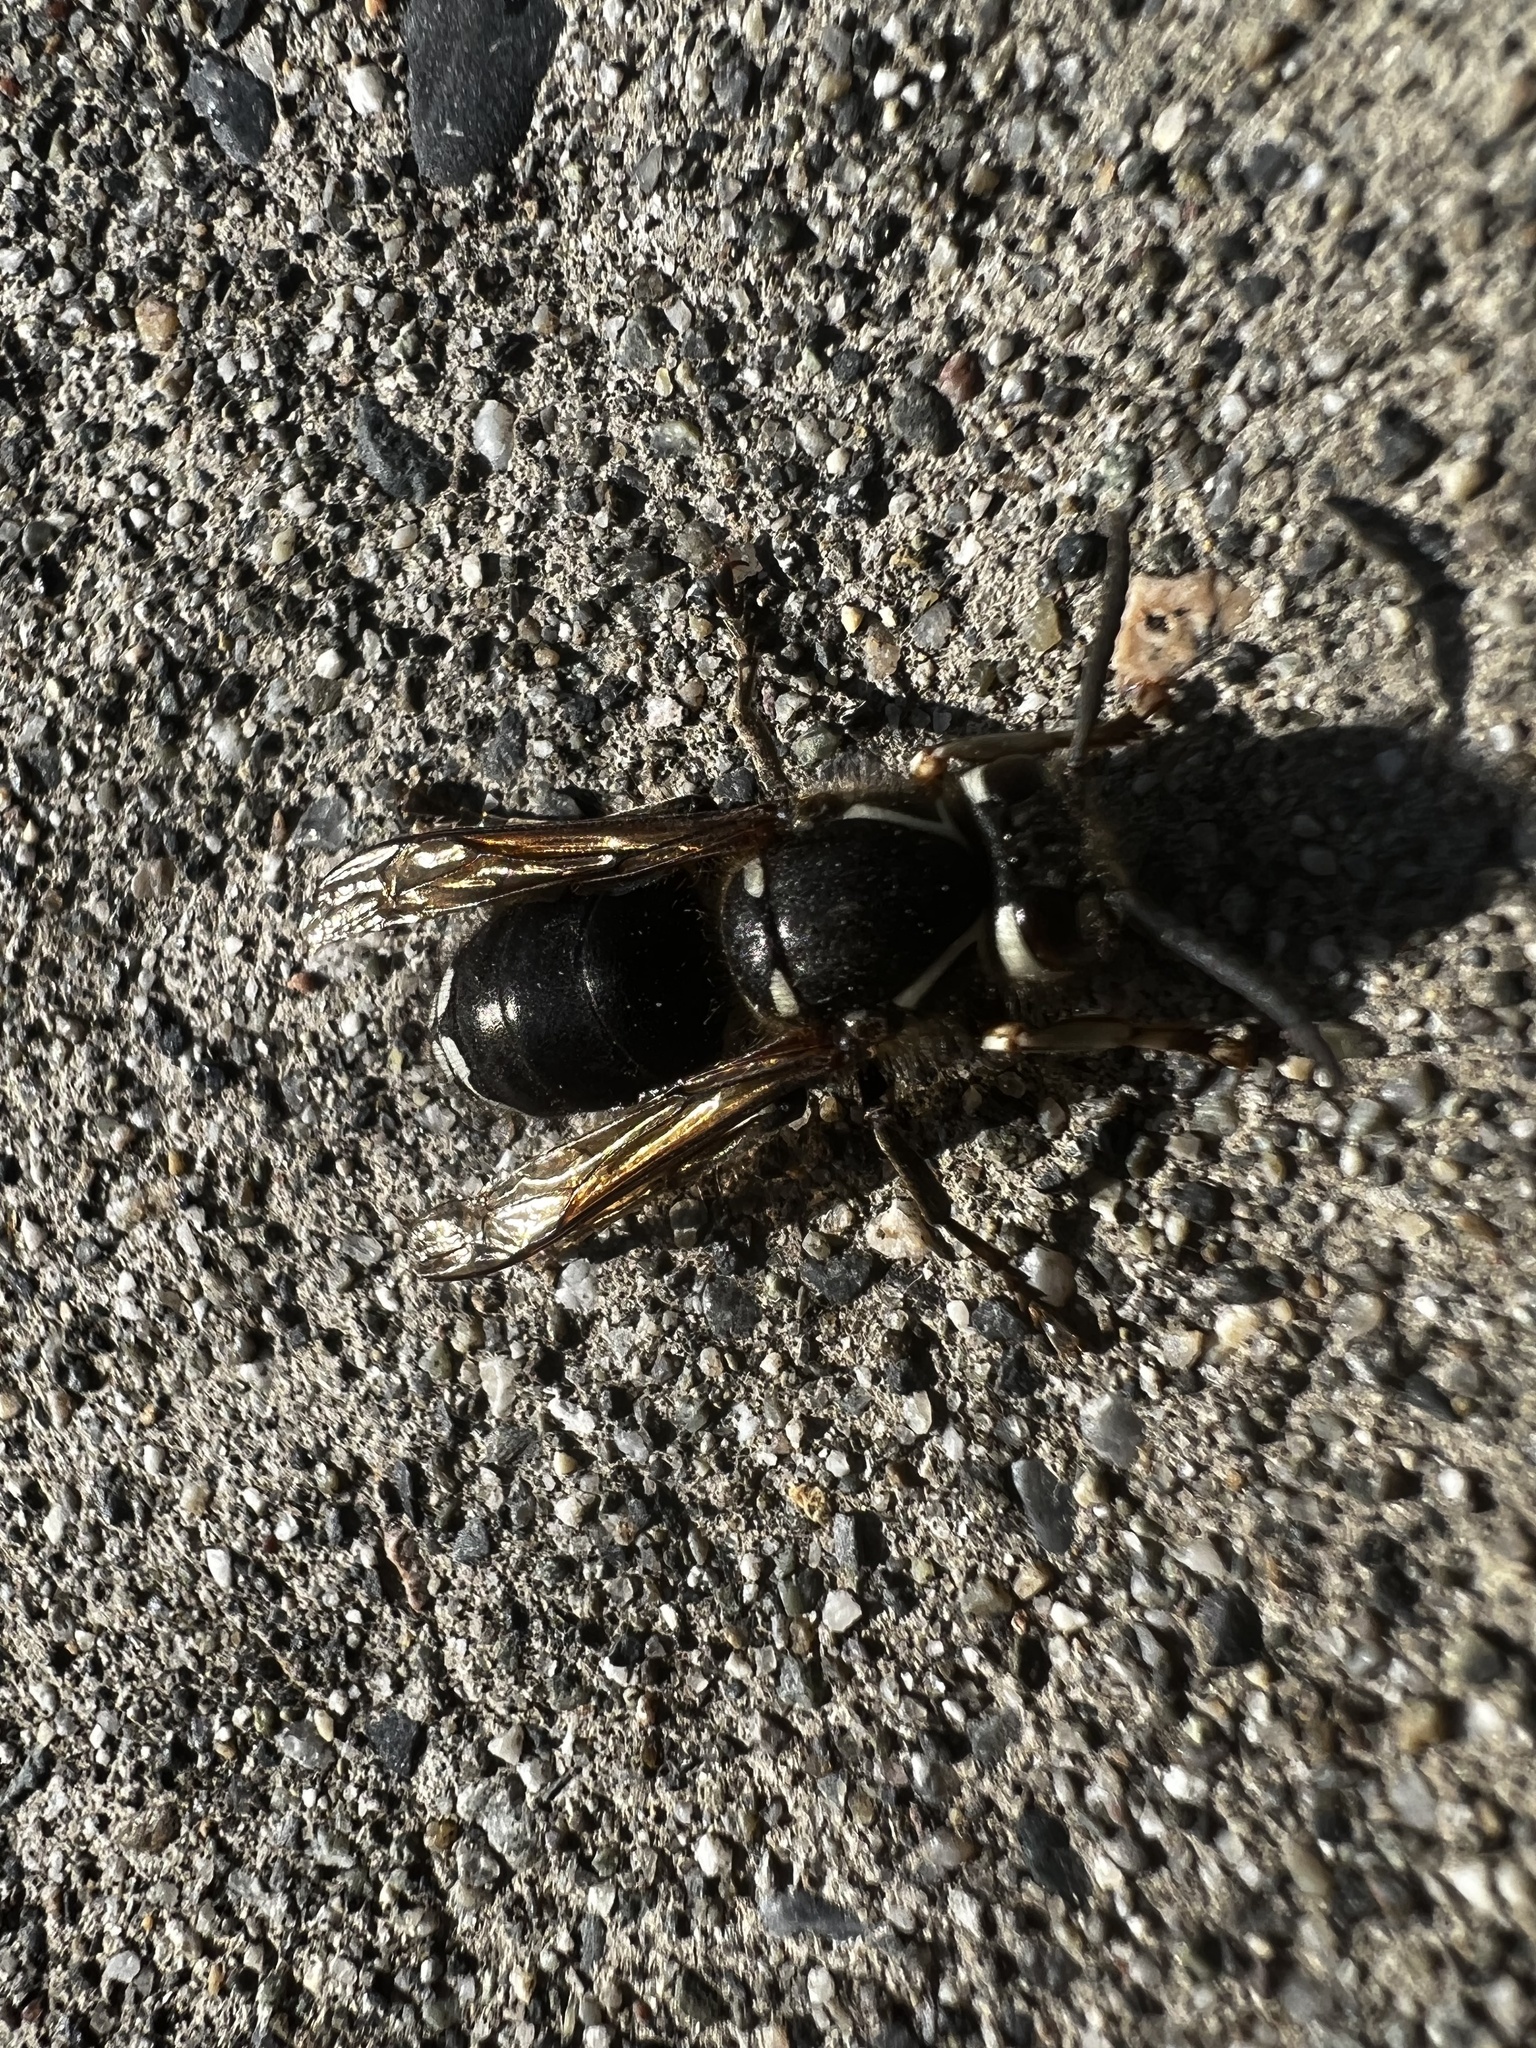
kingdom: Animalia
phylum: Arthropoda
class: Insecta
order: Hymenoptera
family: Vespidae
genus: Dolichovespula
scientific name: Dolichovespula maculata
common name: Bald-faced hornet
